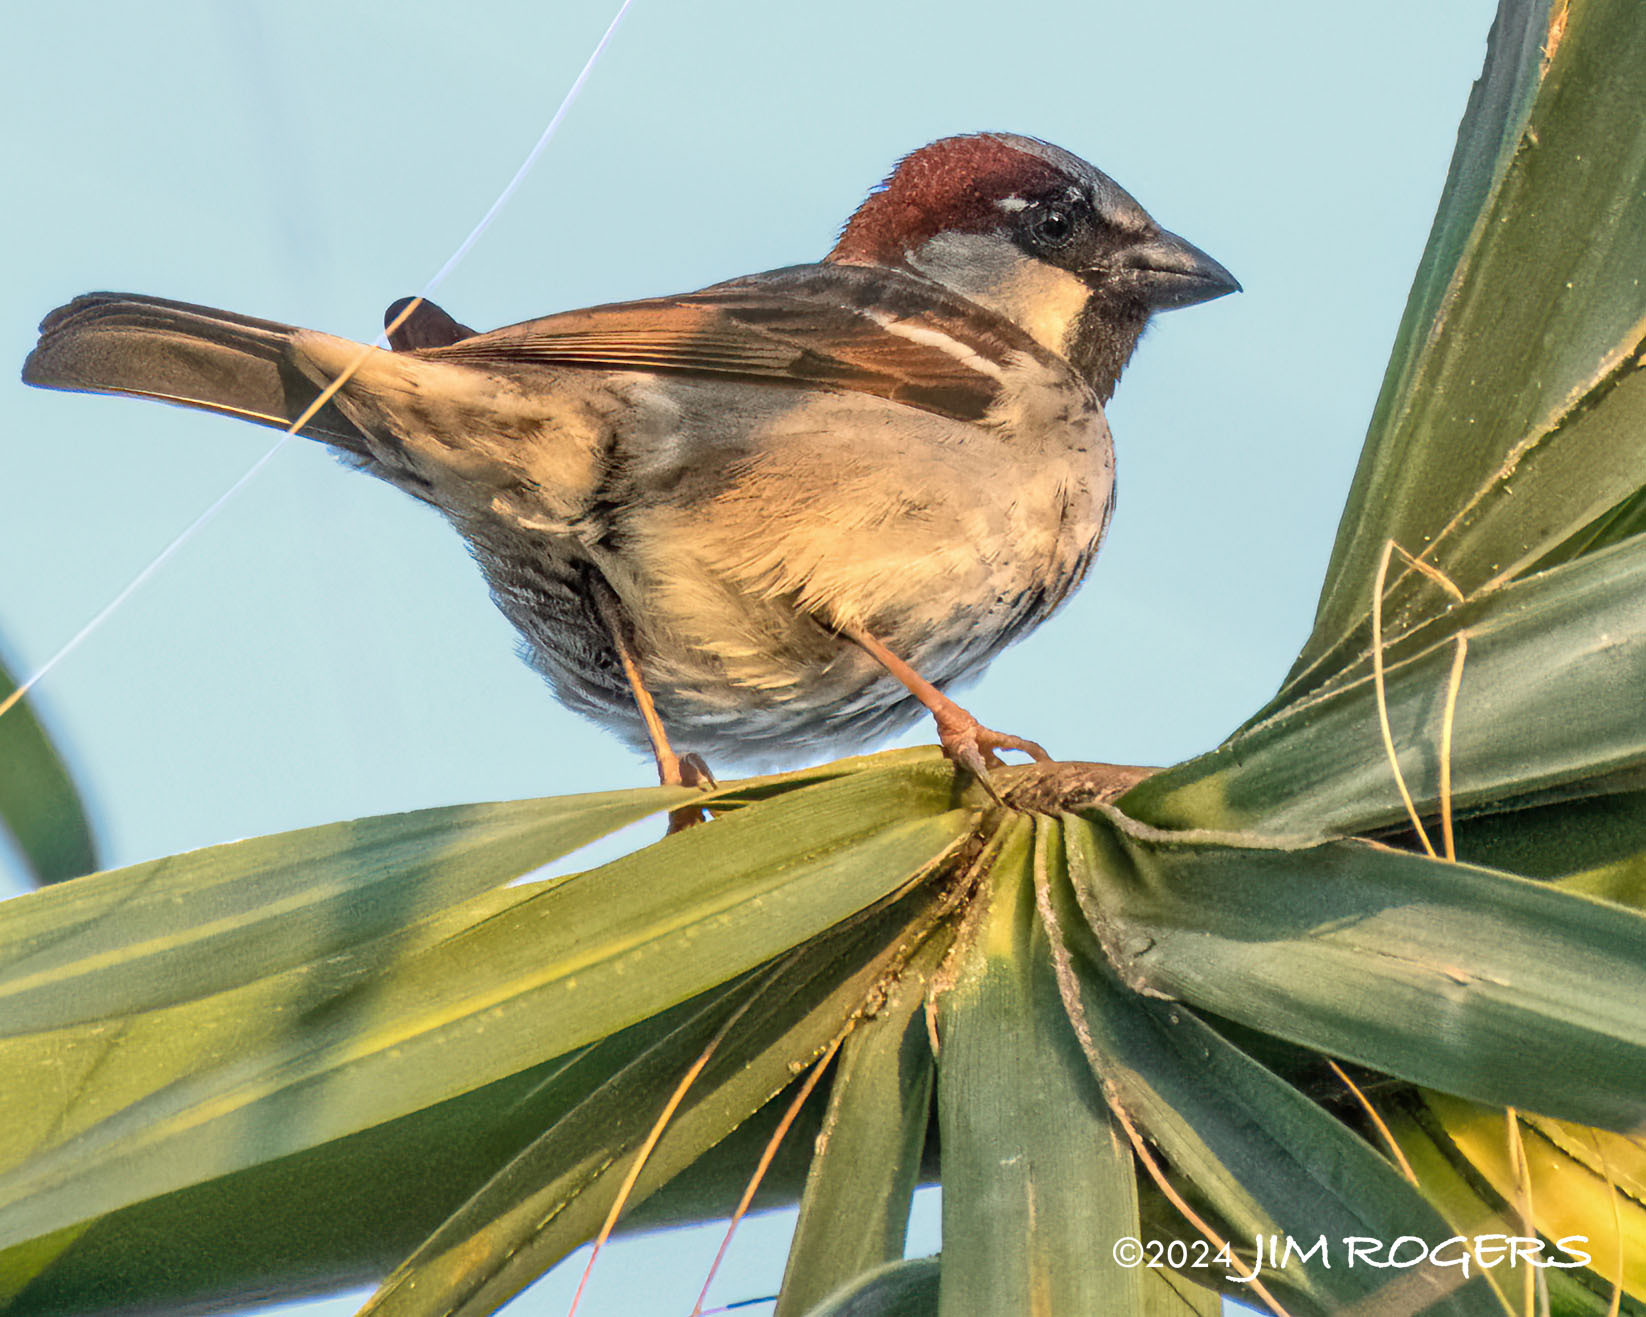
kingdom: Animalia
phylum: Chordata
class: Aves
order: Passeriformes
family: Passeridae
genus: Passer
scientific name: Passer domesticus
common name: House sparrow
